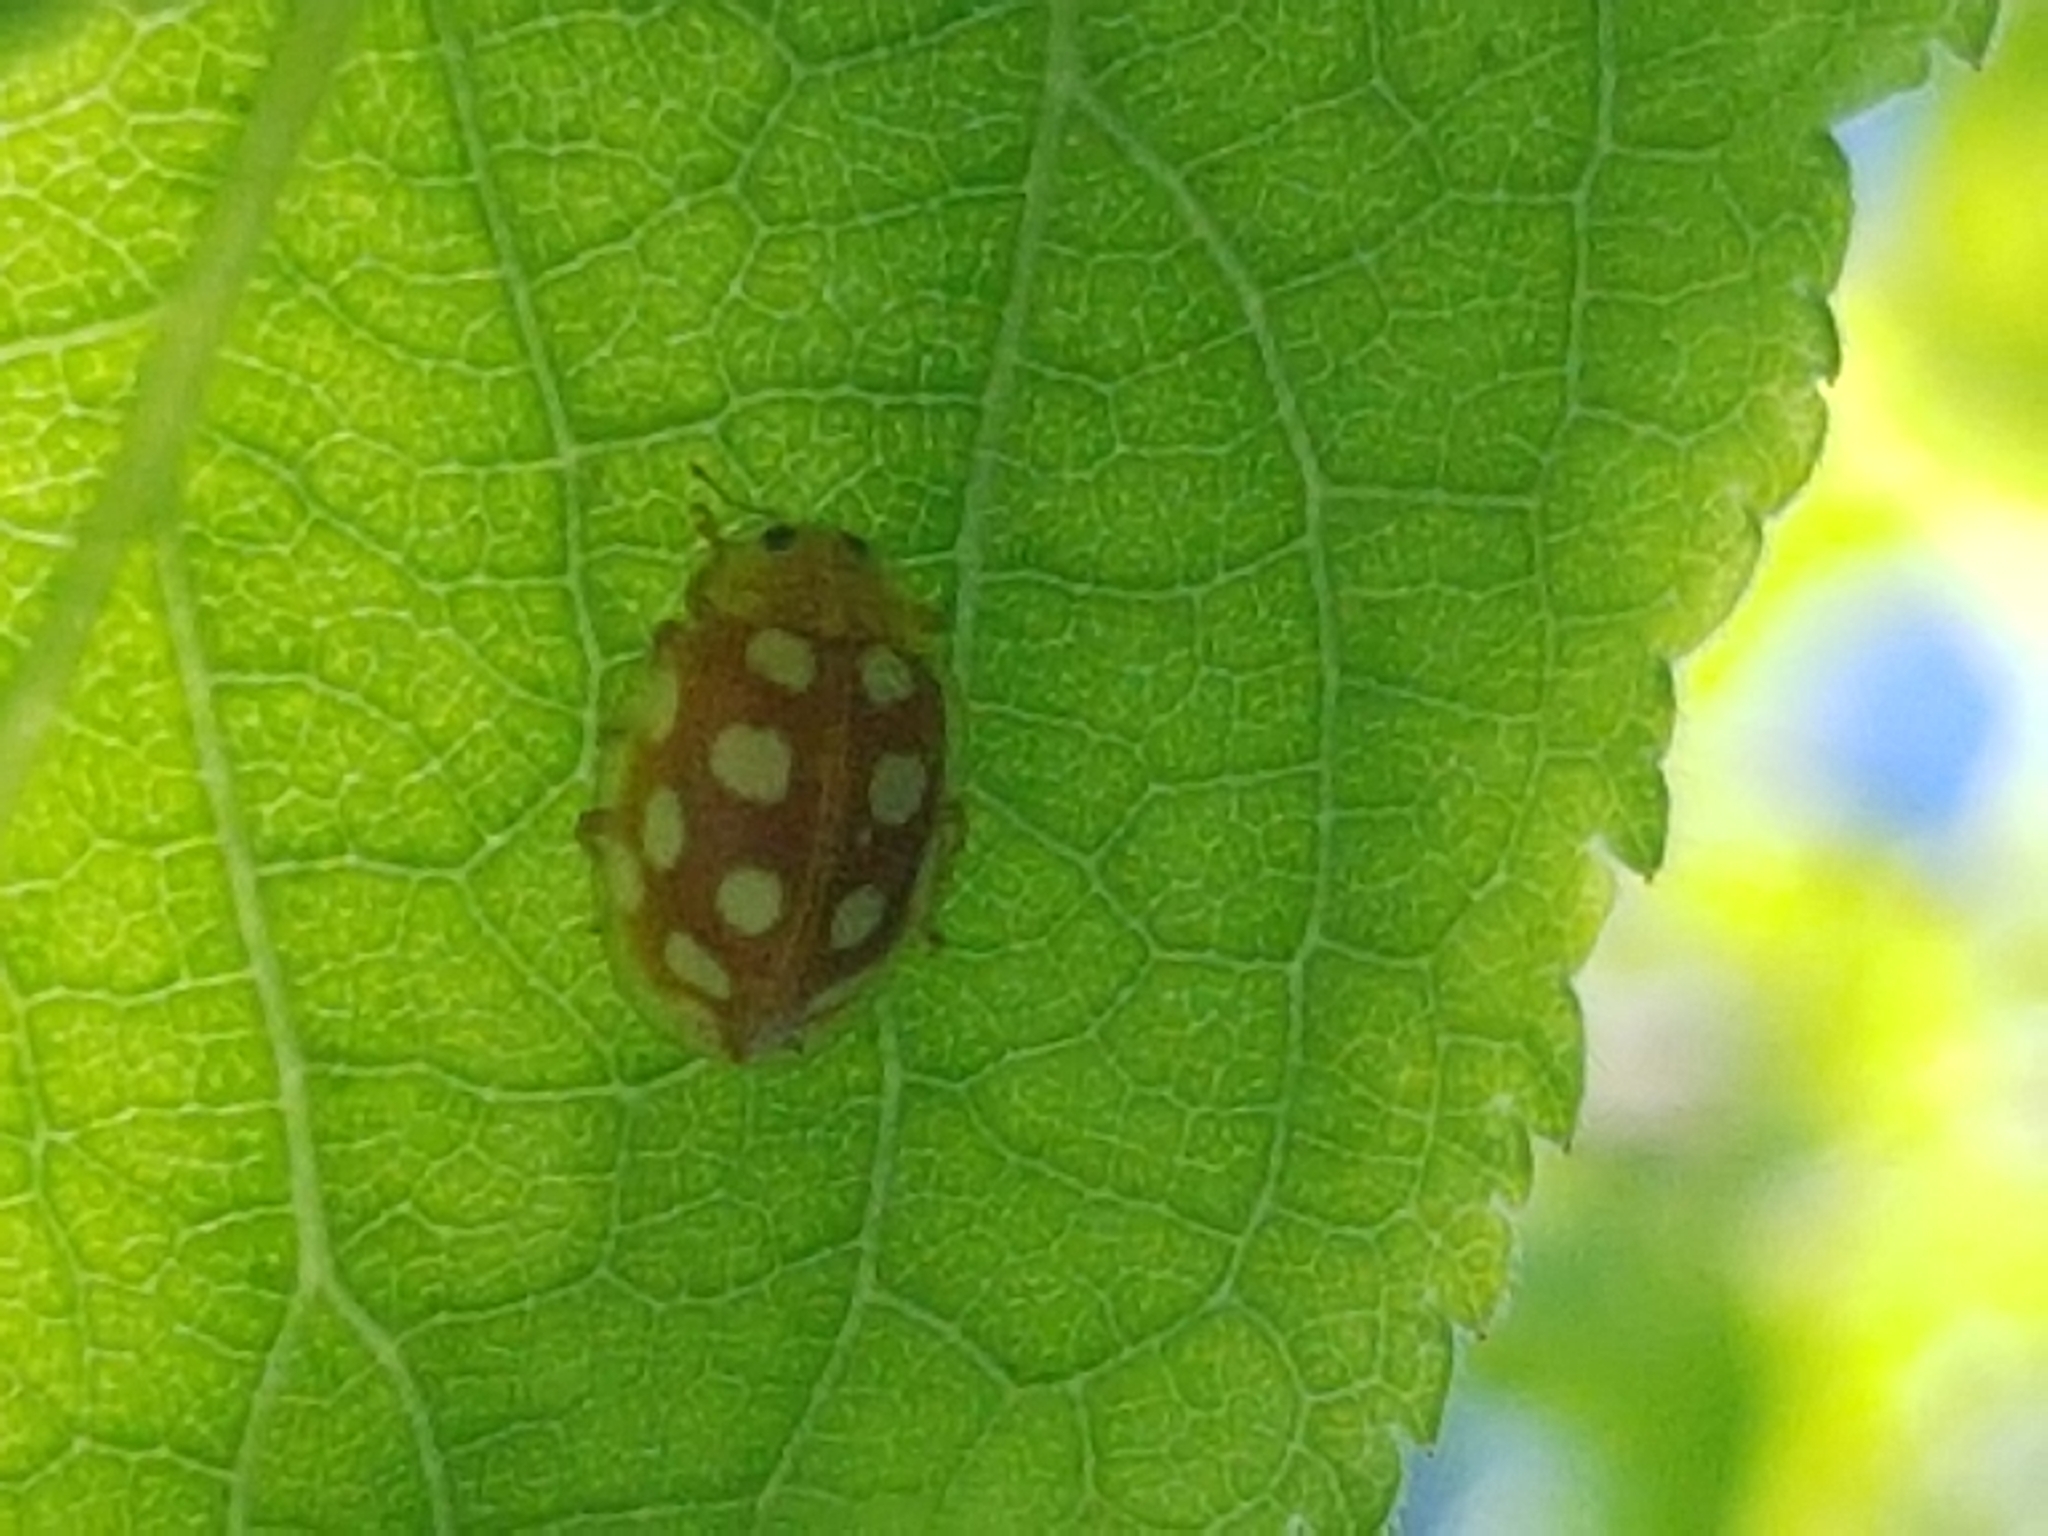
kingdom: Animalia
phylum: Arthropoda
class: Insecta
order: Coleoptera
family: Coccinellidae
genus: Halyzia
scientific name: Halyzia sedecimguttata
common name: Orange ladybird
